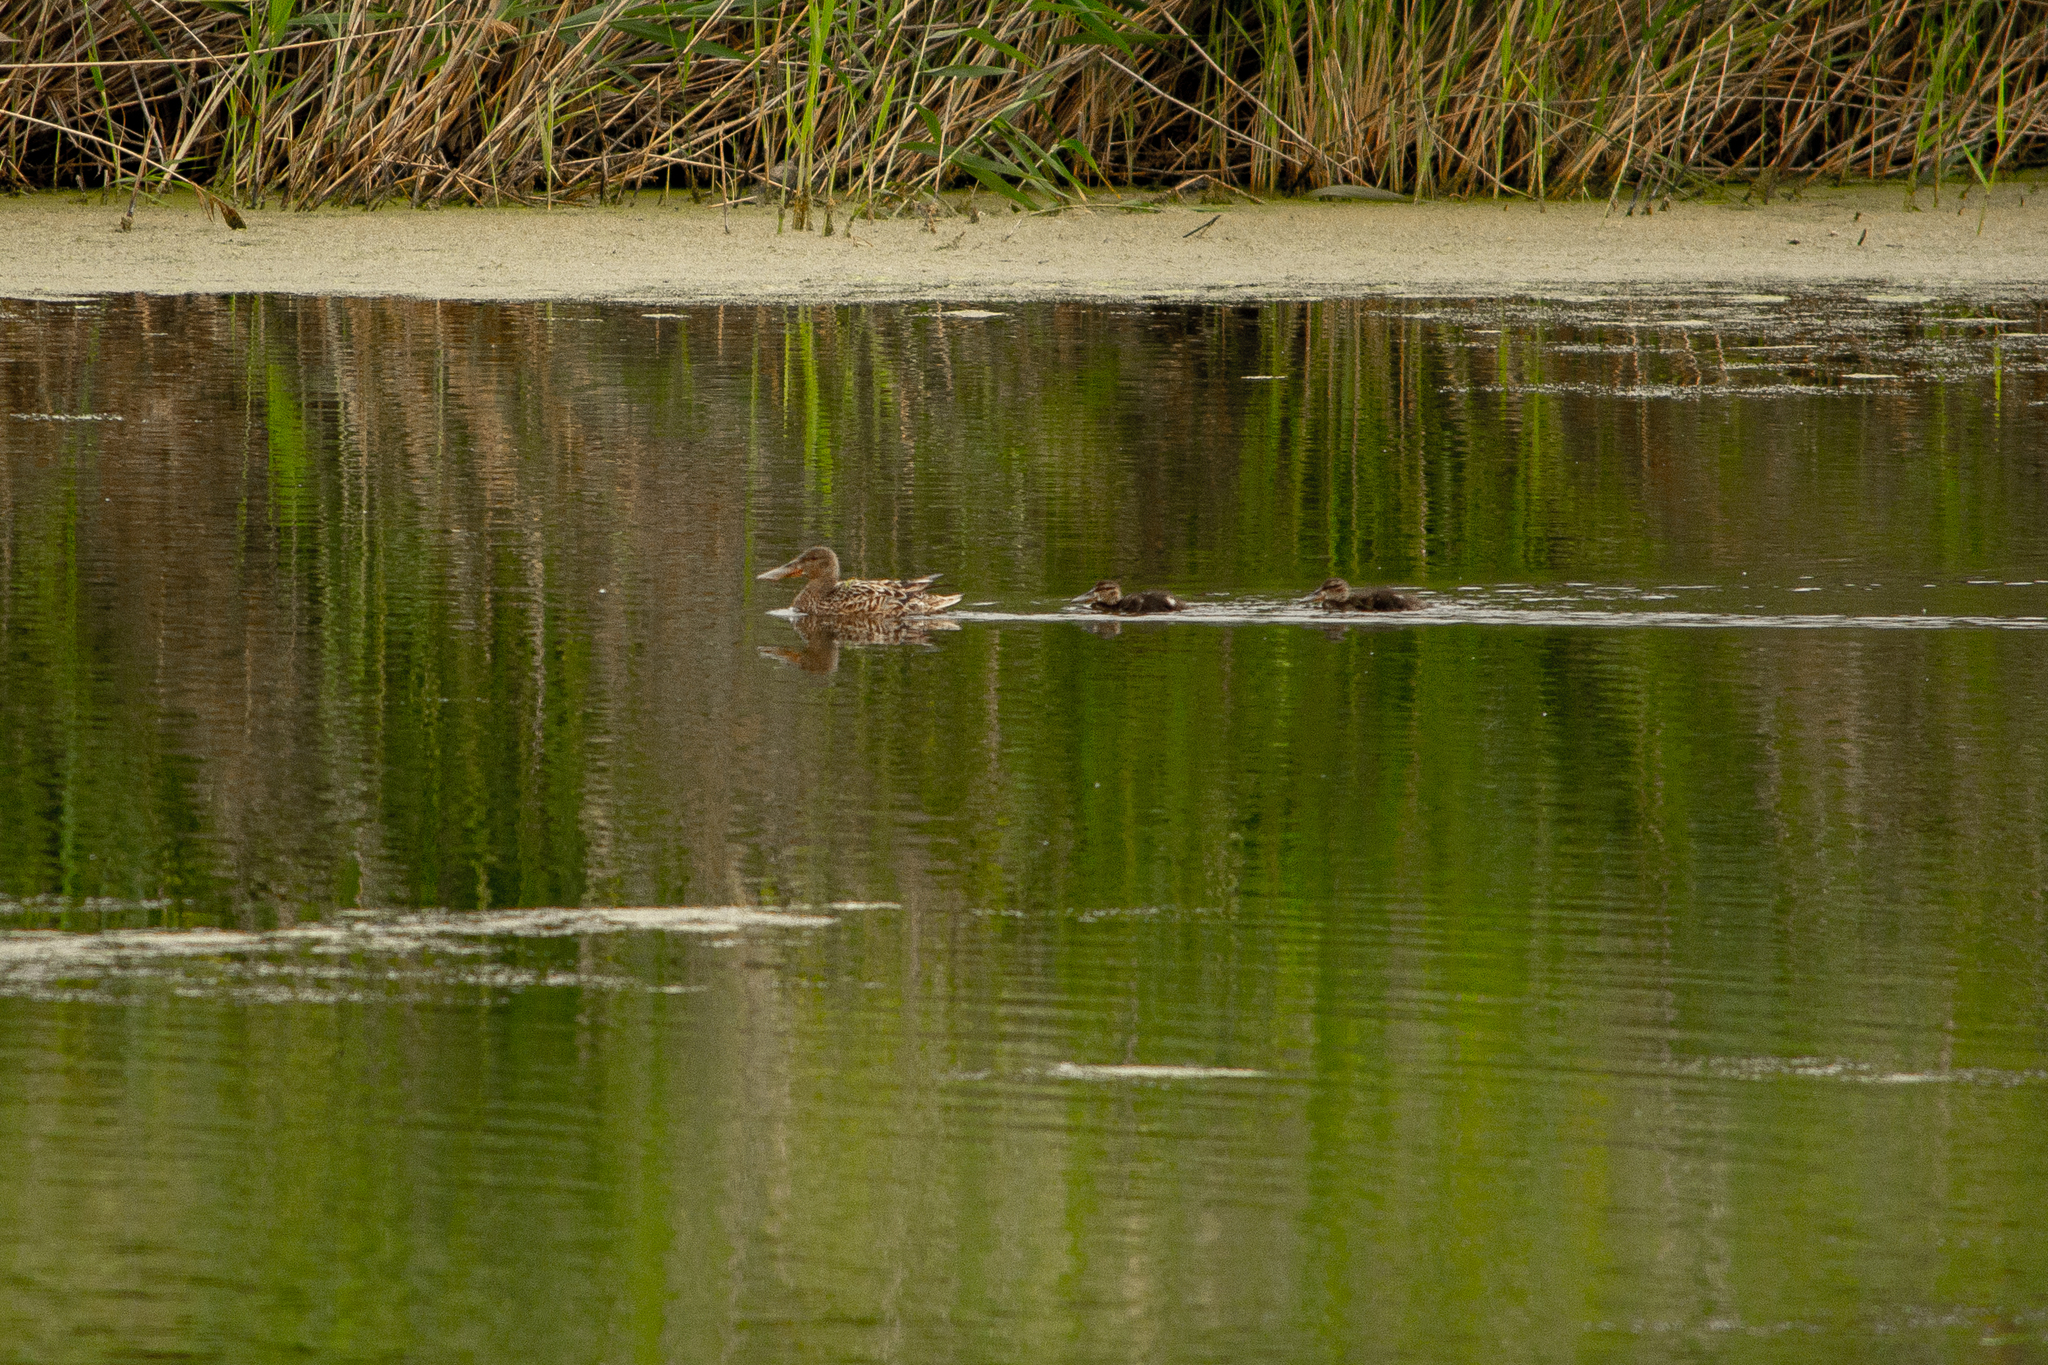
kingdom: Animalia
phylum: Chordata
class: Aves
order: Anseriformes
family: Anatidae
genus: Spatula
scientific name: Spatula clypeata
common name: Northern shoveler
